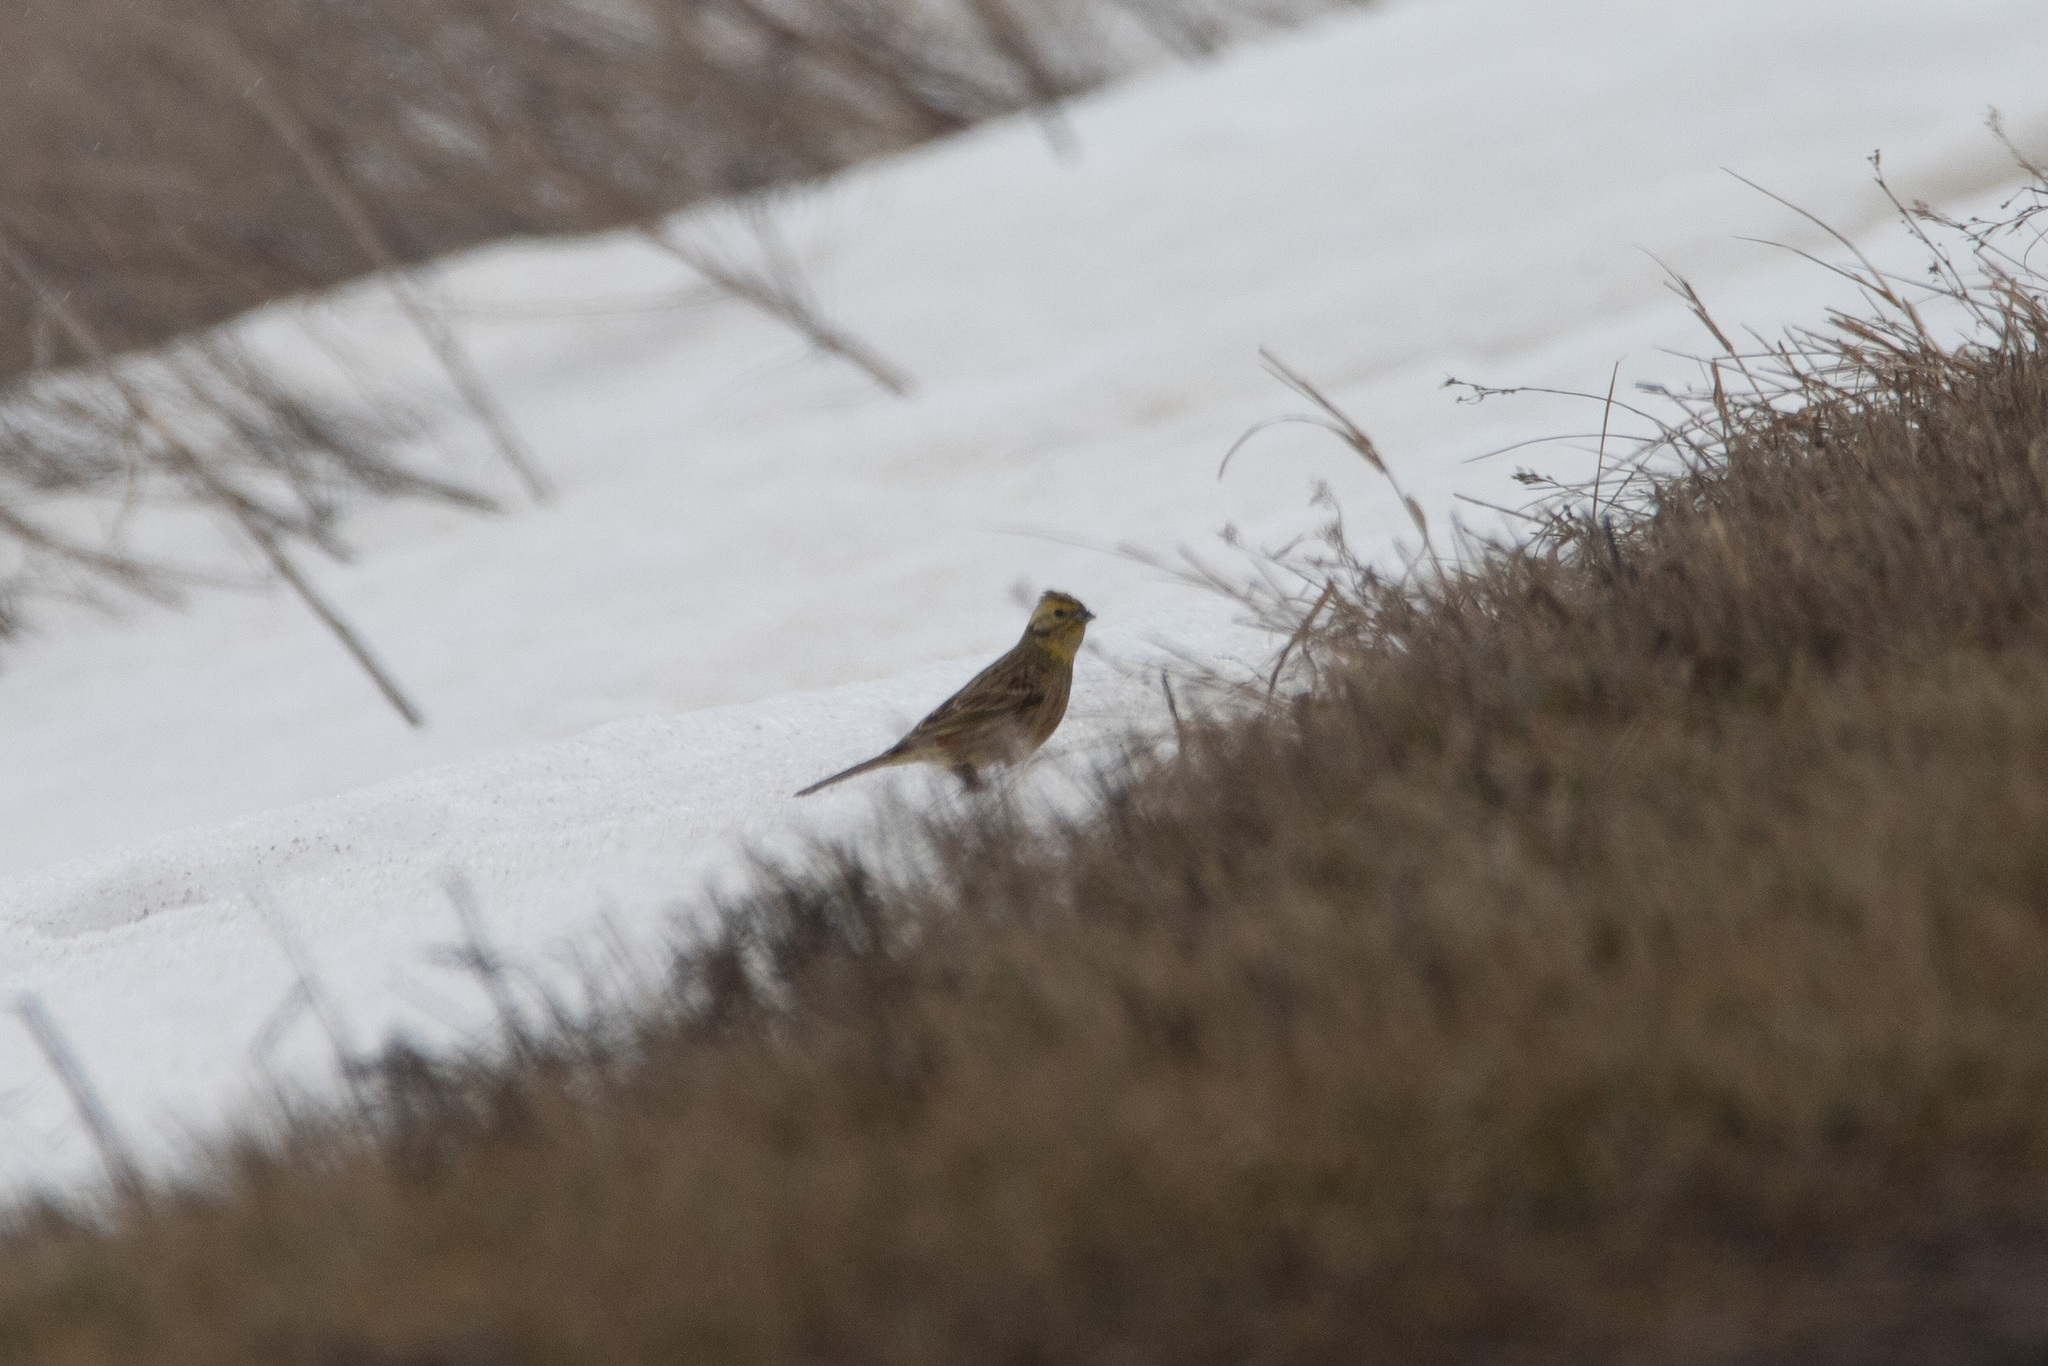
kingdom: Animalia
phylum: Chordata
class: Aves
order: Passeriformes
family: Emberizidae
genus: Emberiza
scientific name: Emberiza citrinella
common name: Yellowhammer
